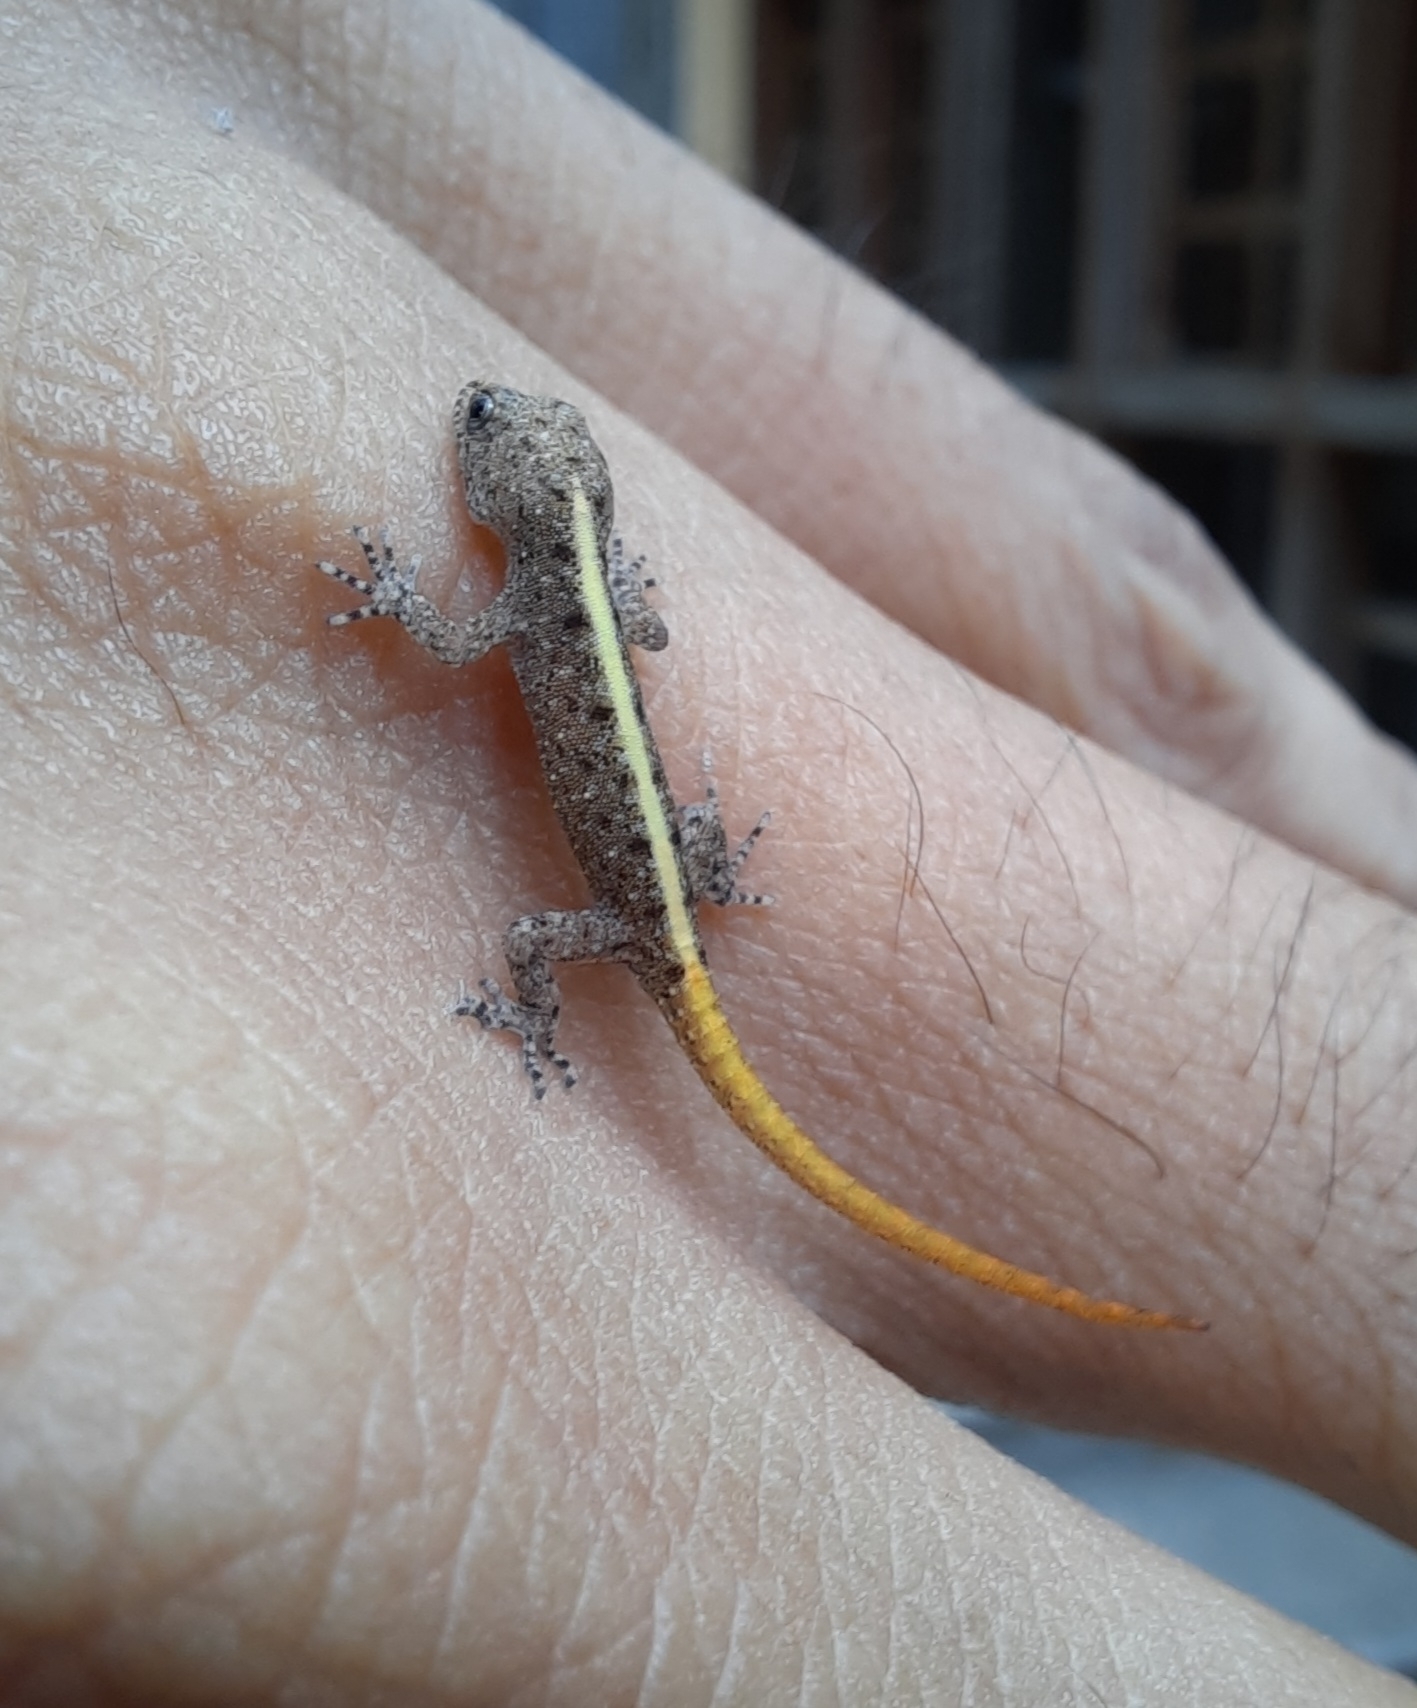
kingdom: Animalia
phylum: Chordata
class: Squamata
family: Gekkonidae
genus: Cnemaspis
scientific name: Cnemaspis mysoriensis
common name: Mysore day gecko
